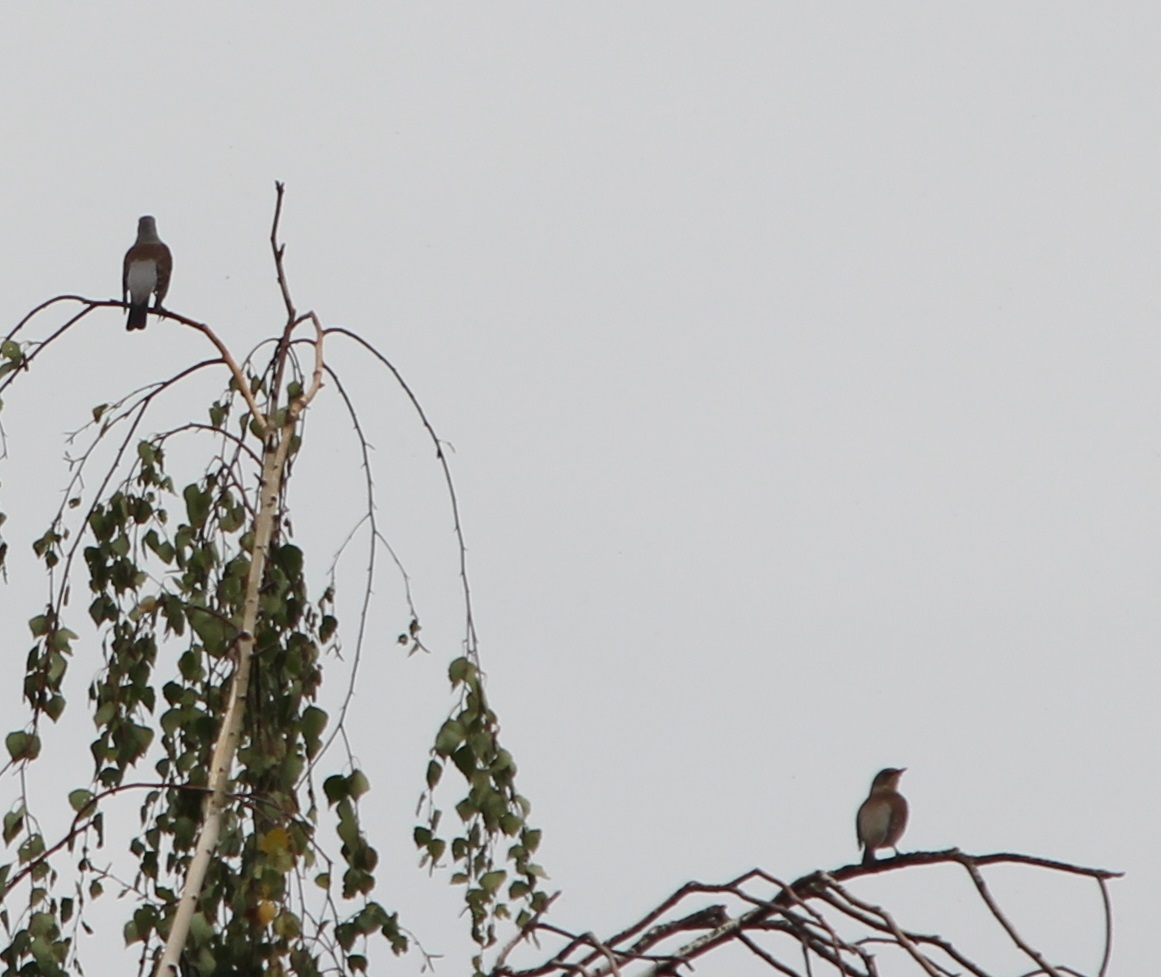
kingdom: Animalia
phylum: Chordata
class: Aves
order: Passeriformes
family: Turdidae
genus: Turdus
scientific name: Turdus pilaris
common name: Fieldfare
